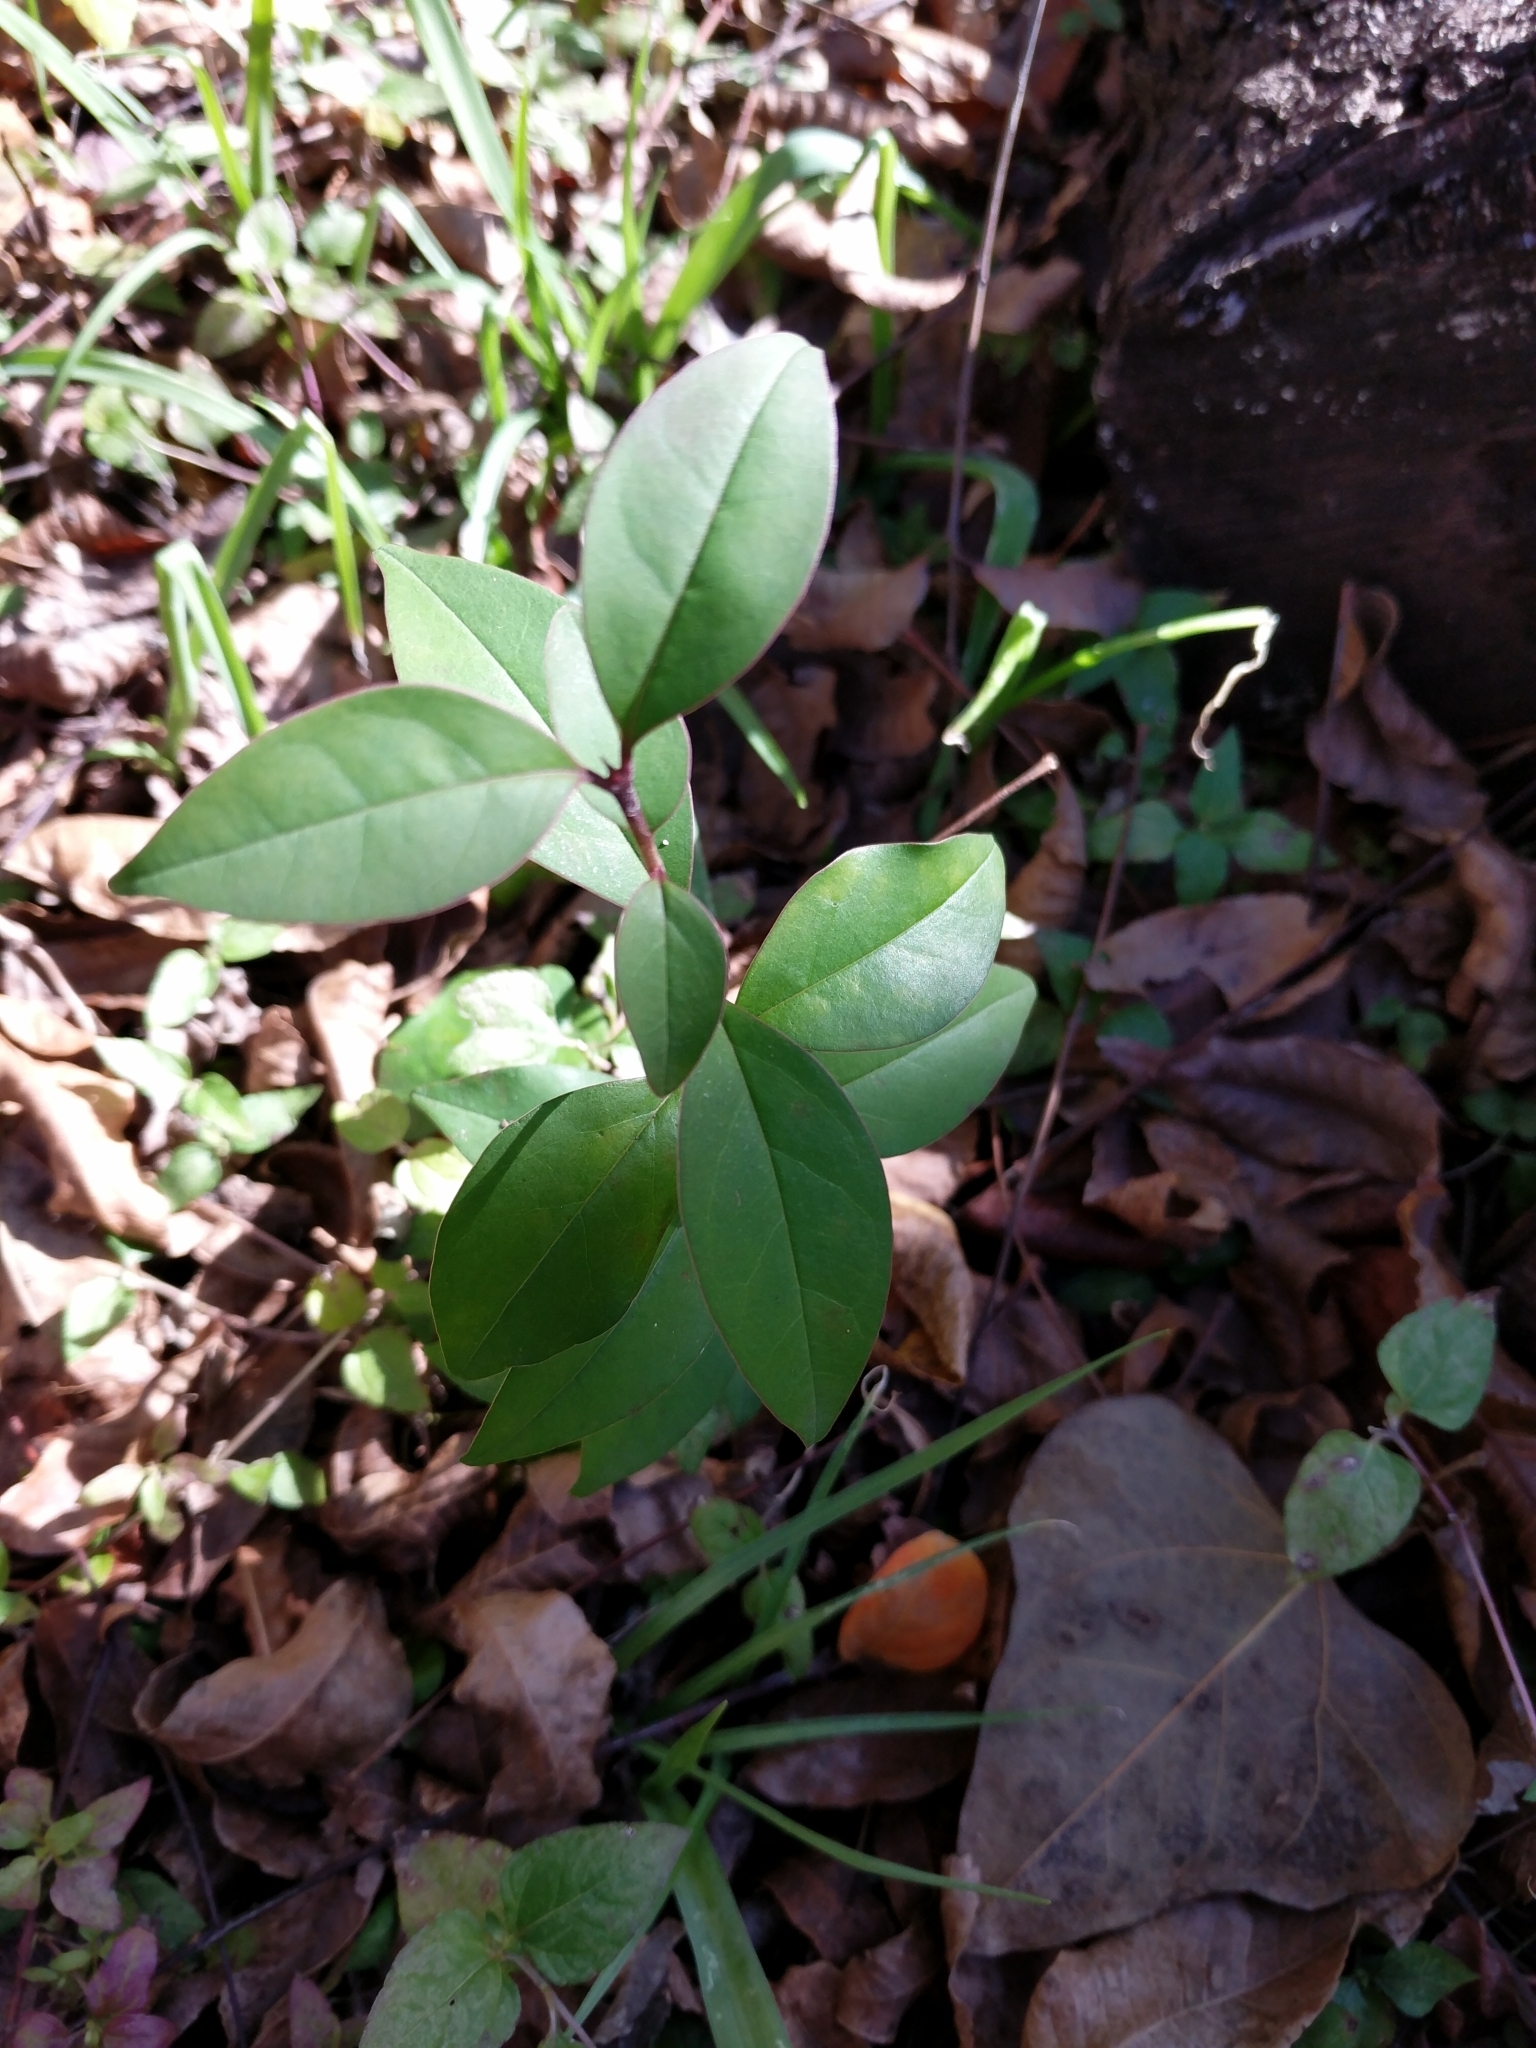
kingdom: Plantae
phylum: Tracheophyta
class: Magnoliopsida
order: Lamiales
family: Oleaceae
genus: Ligustrum
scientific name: Ligustrum lucidum
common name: Glossy privet
